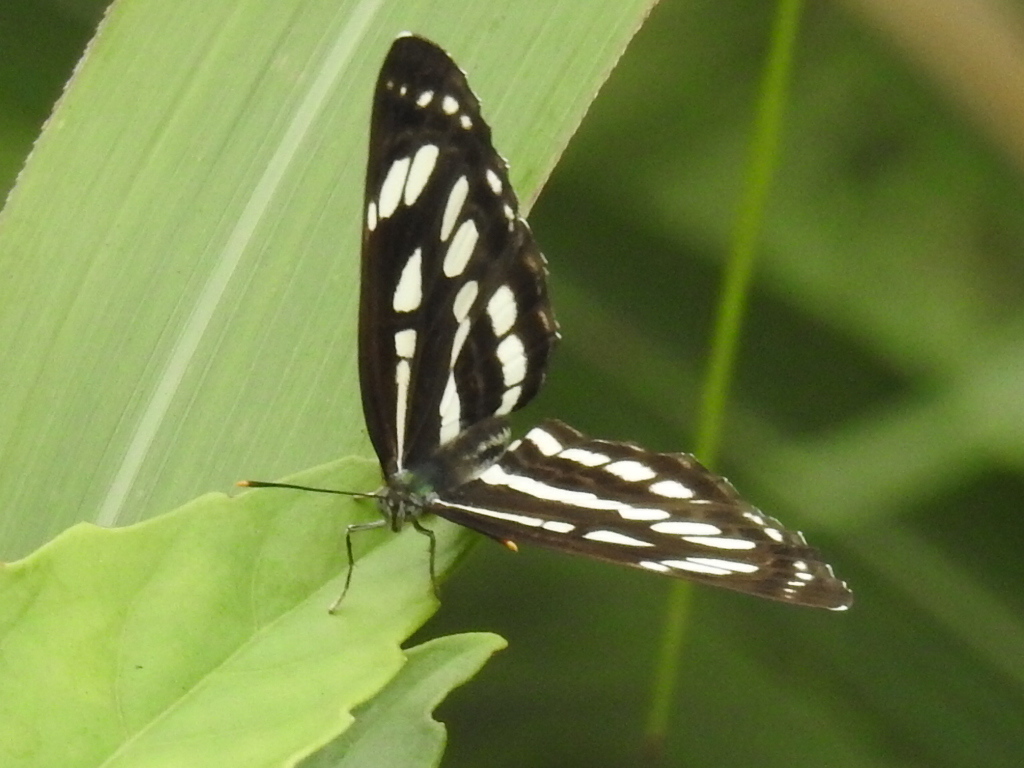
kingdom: Animalia
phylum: Arthropoda
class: Insecta
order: Lepidoptera
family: Nymphalidae
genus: Neptis
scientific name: Neptis hylas
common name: Common sailer
